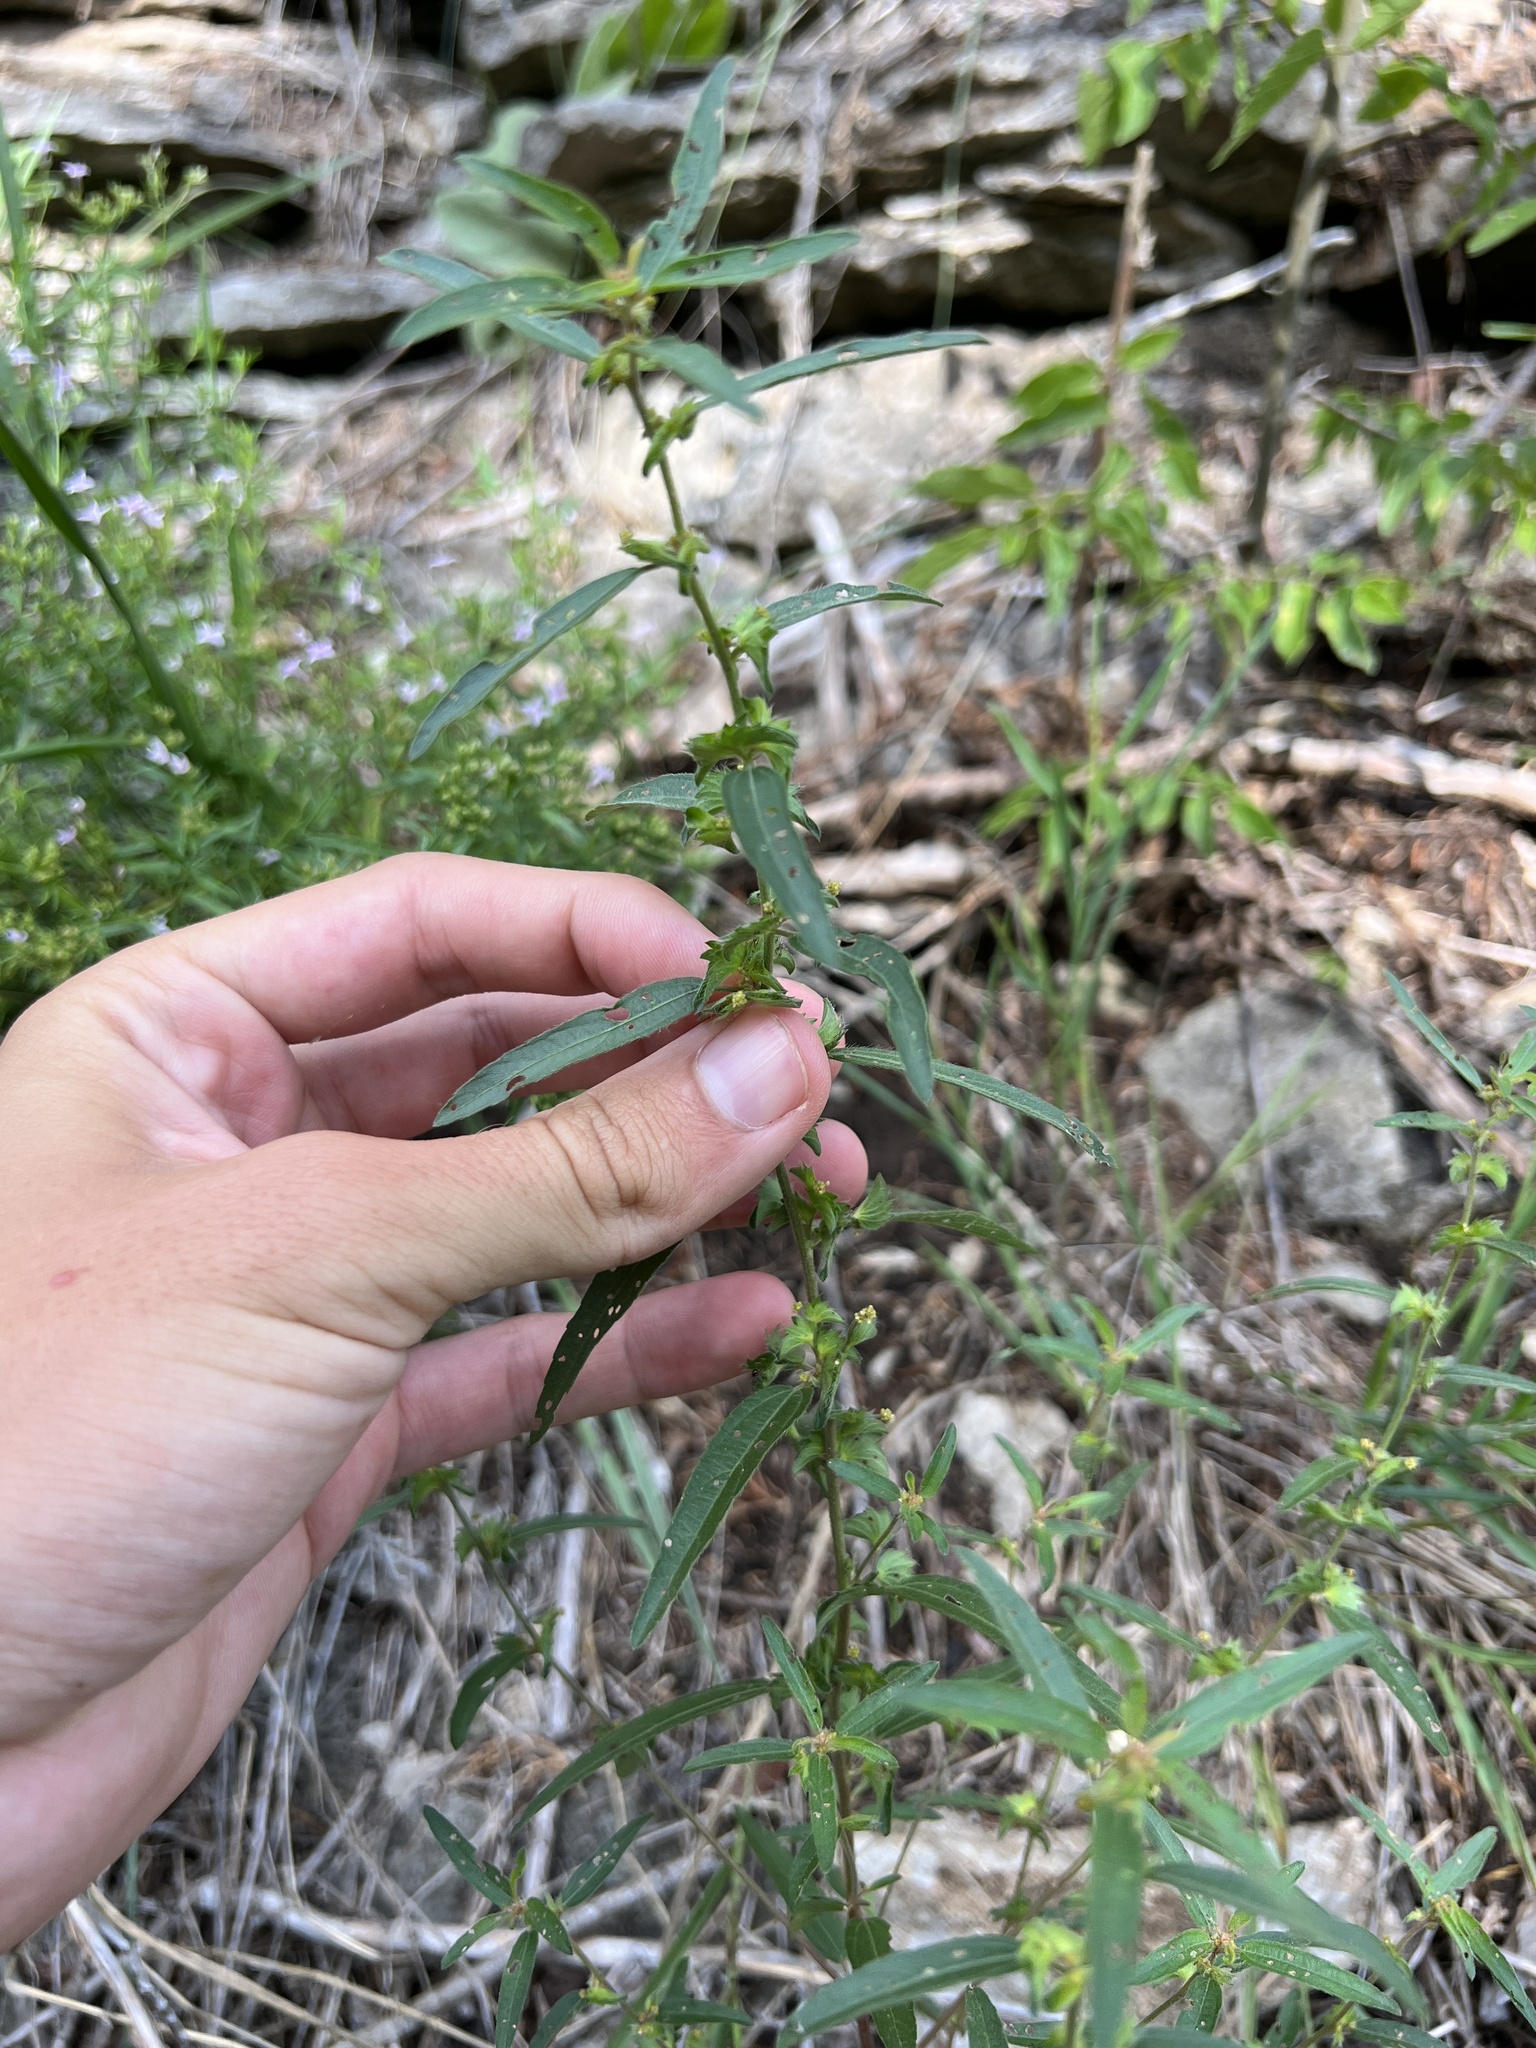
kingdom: Plantae
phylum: Tracheophyta
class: Magnoliopsida
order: Malpighiales
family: Euphorbiaceae
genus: Acalypha
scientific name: Acalypha monococca
